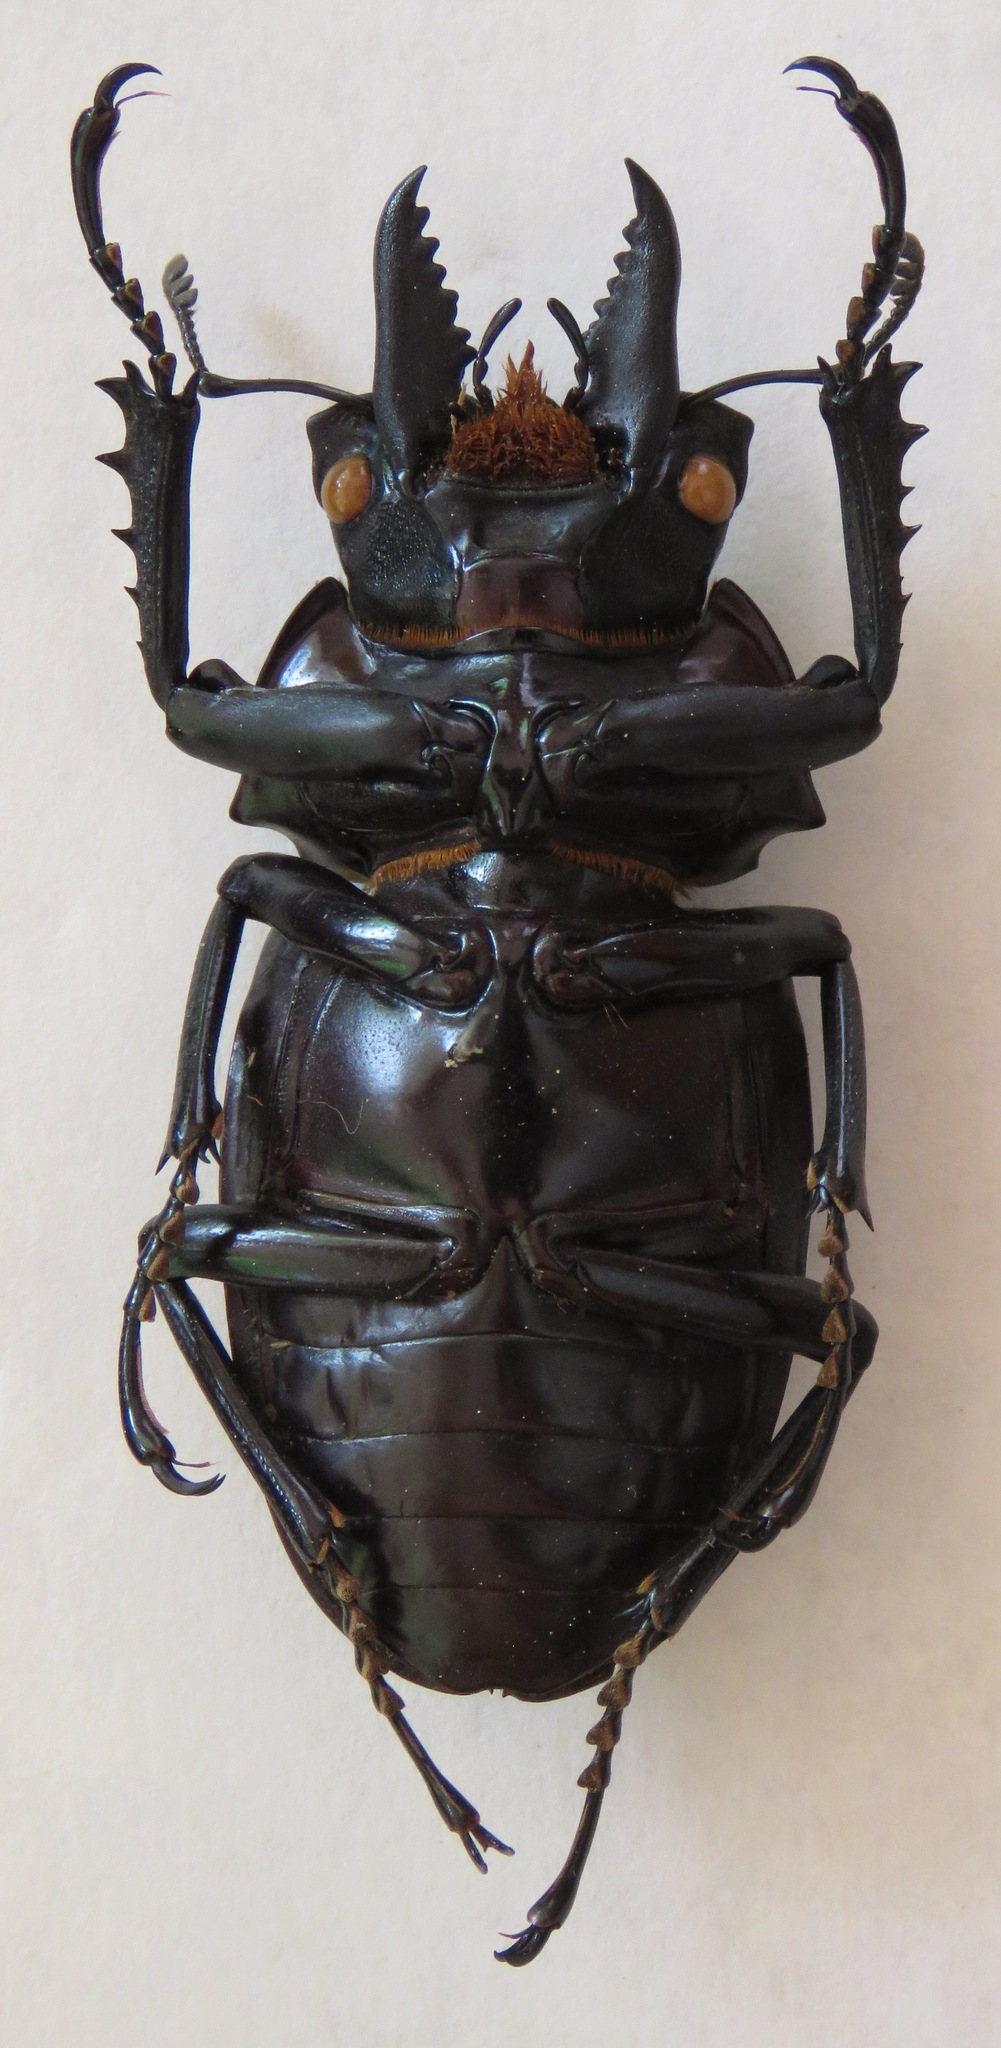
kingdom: Animalia
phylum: Arthropoda
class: Insecta
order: Coleoptera
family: Lucanidae
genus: Neolucanus
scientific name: Neolucanus giganteus
